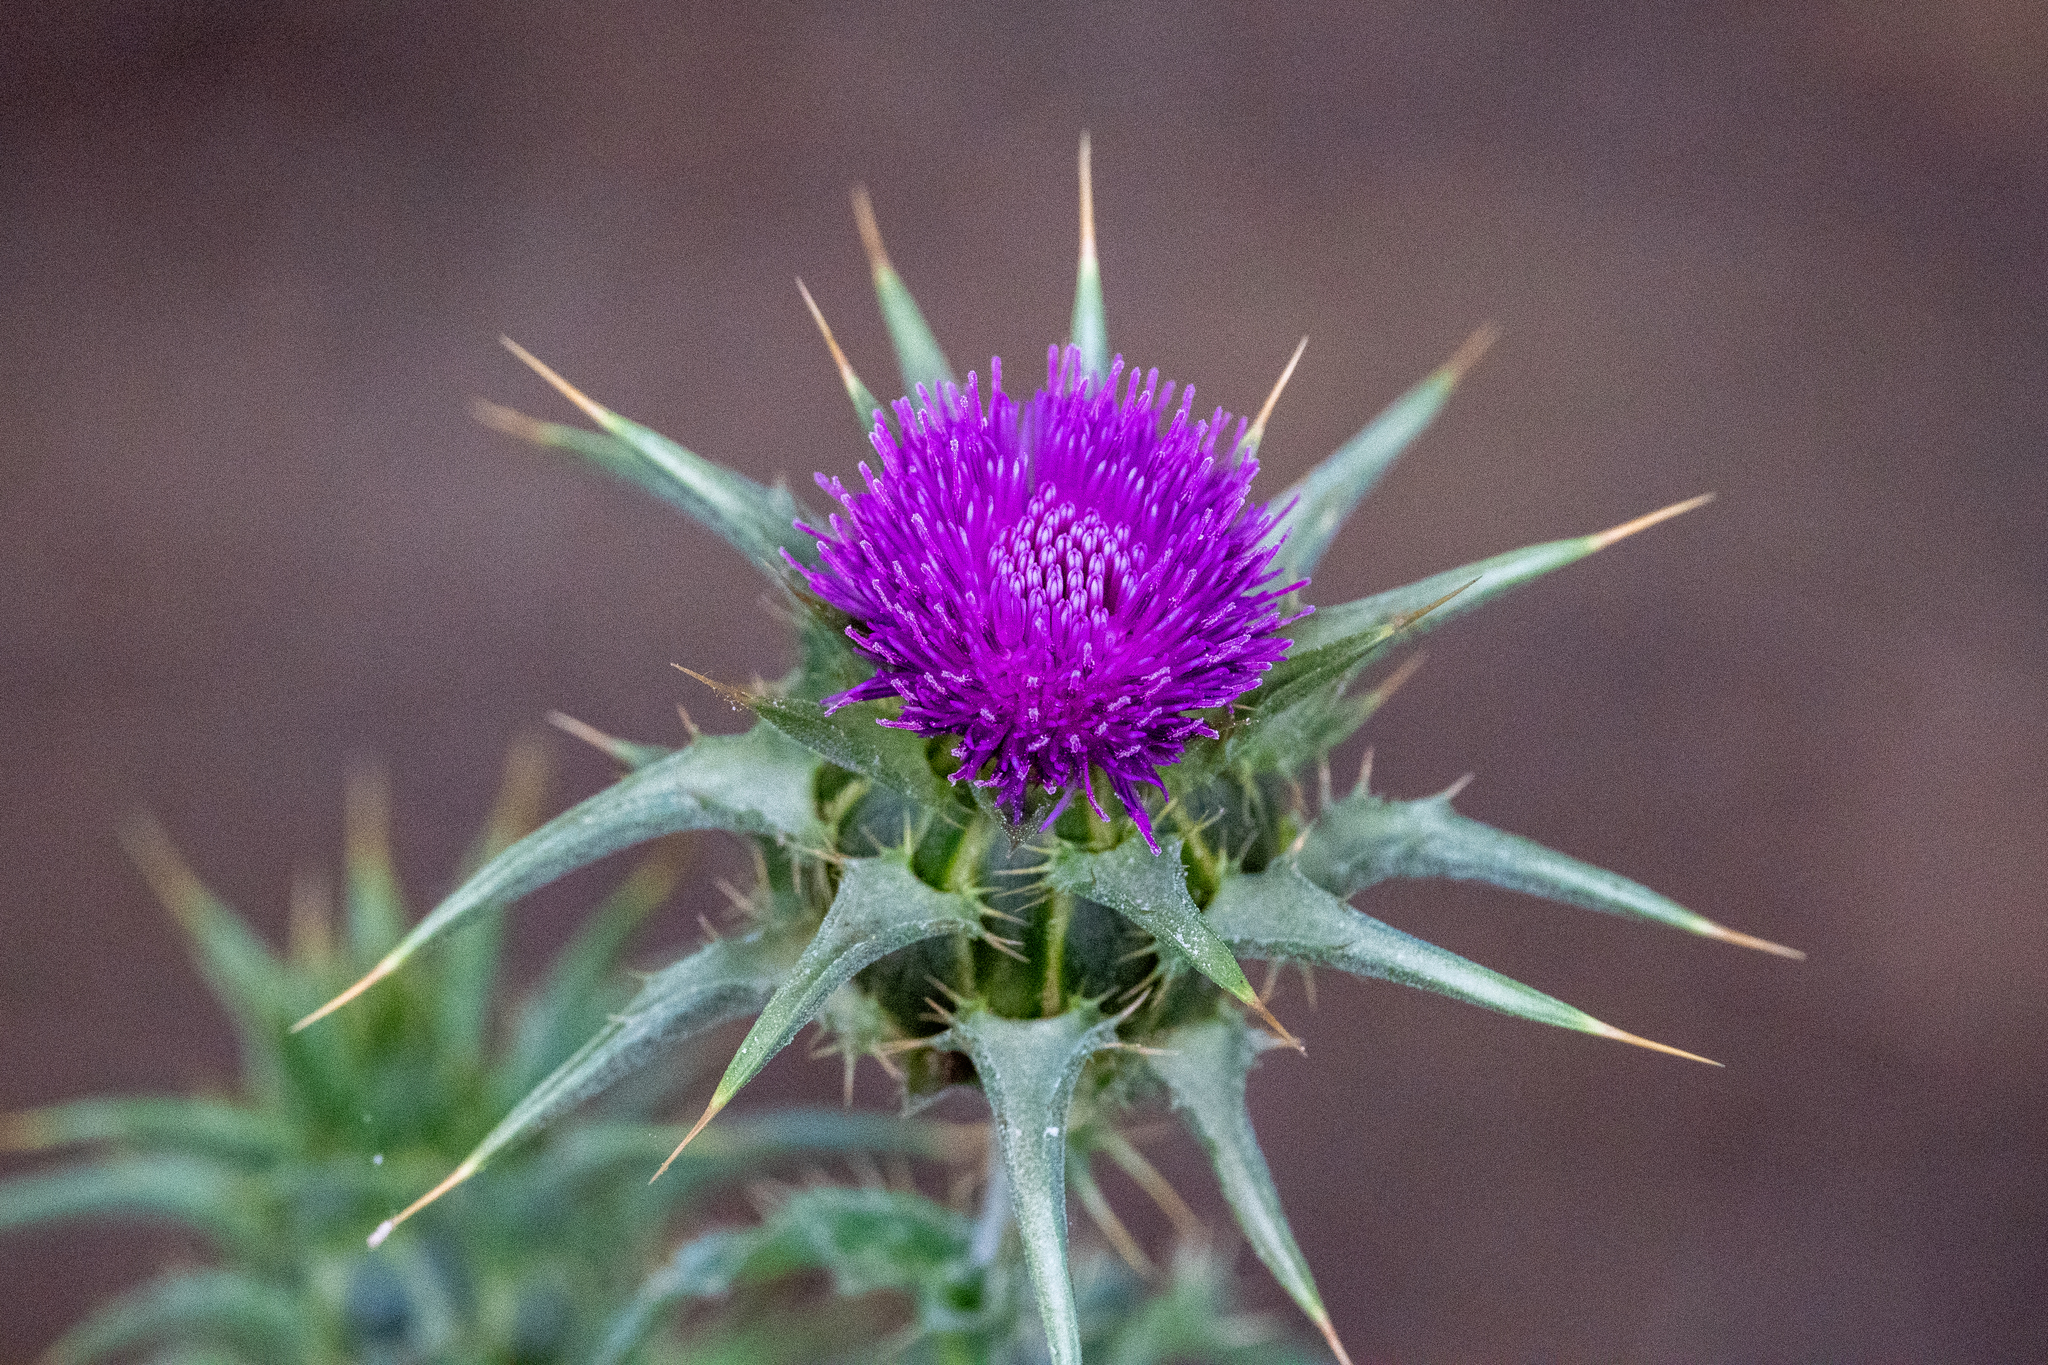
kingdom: Plantae
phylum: Tracheophyta
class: Magnoliopsida
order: Asterales
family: Asteraceae
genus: Silybum
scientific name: Silybum marianum
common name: Milk thistle
